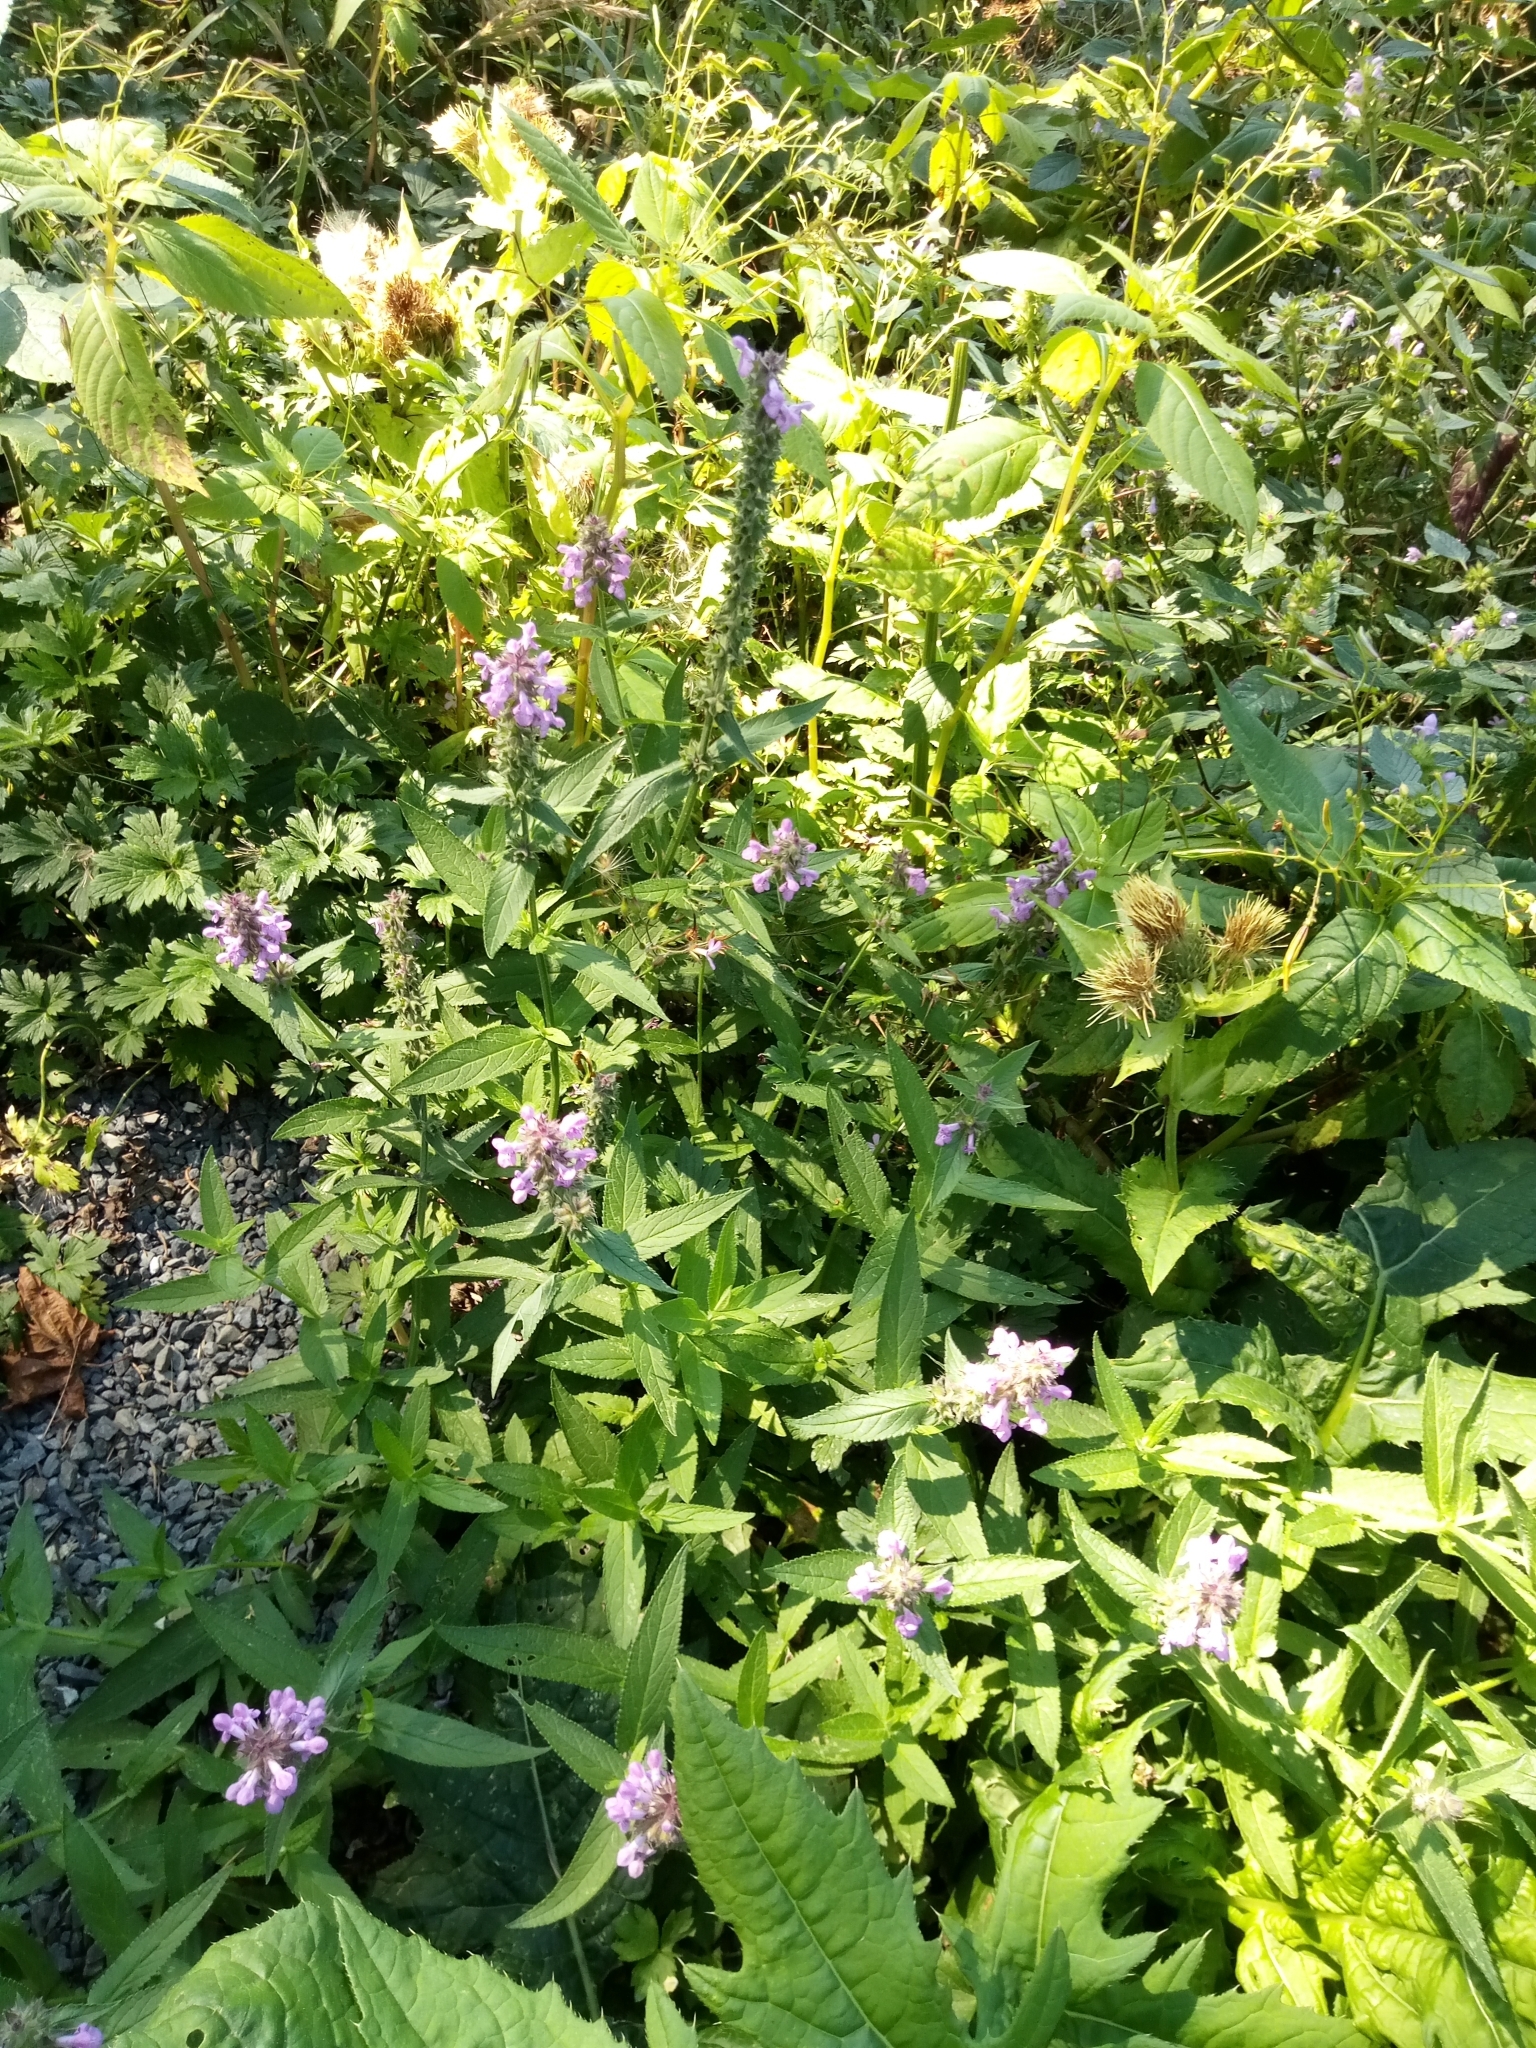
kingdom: Plantae
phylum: Tracheophyta
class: Magnoliopsida
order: Lamiales
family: Lamiaceae
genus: Stachys
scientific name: Stachys palustris
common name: Marsh woundwort
